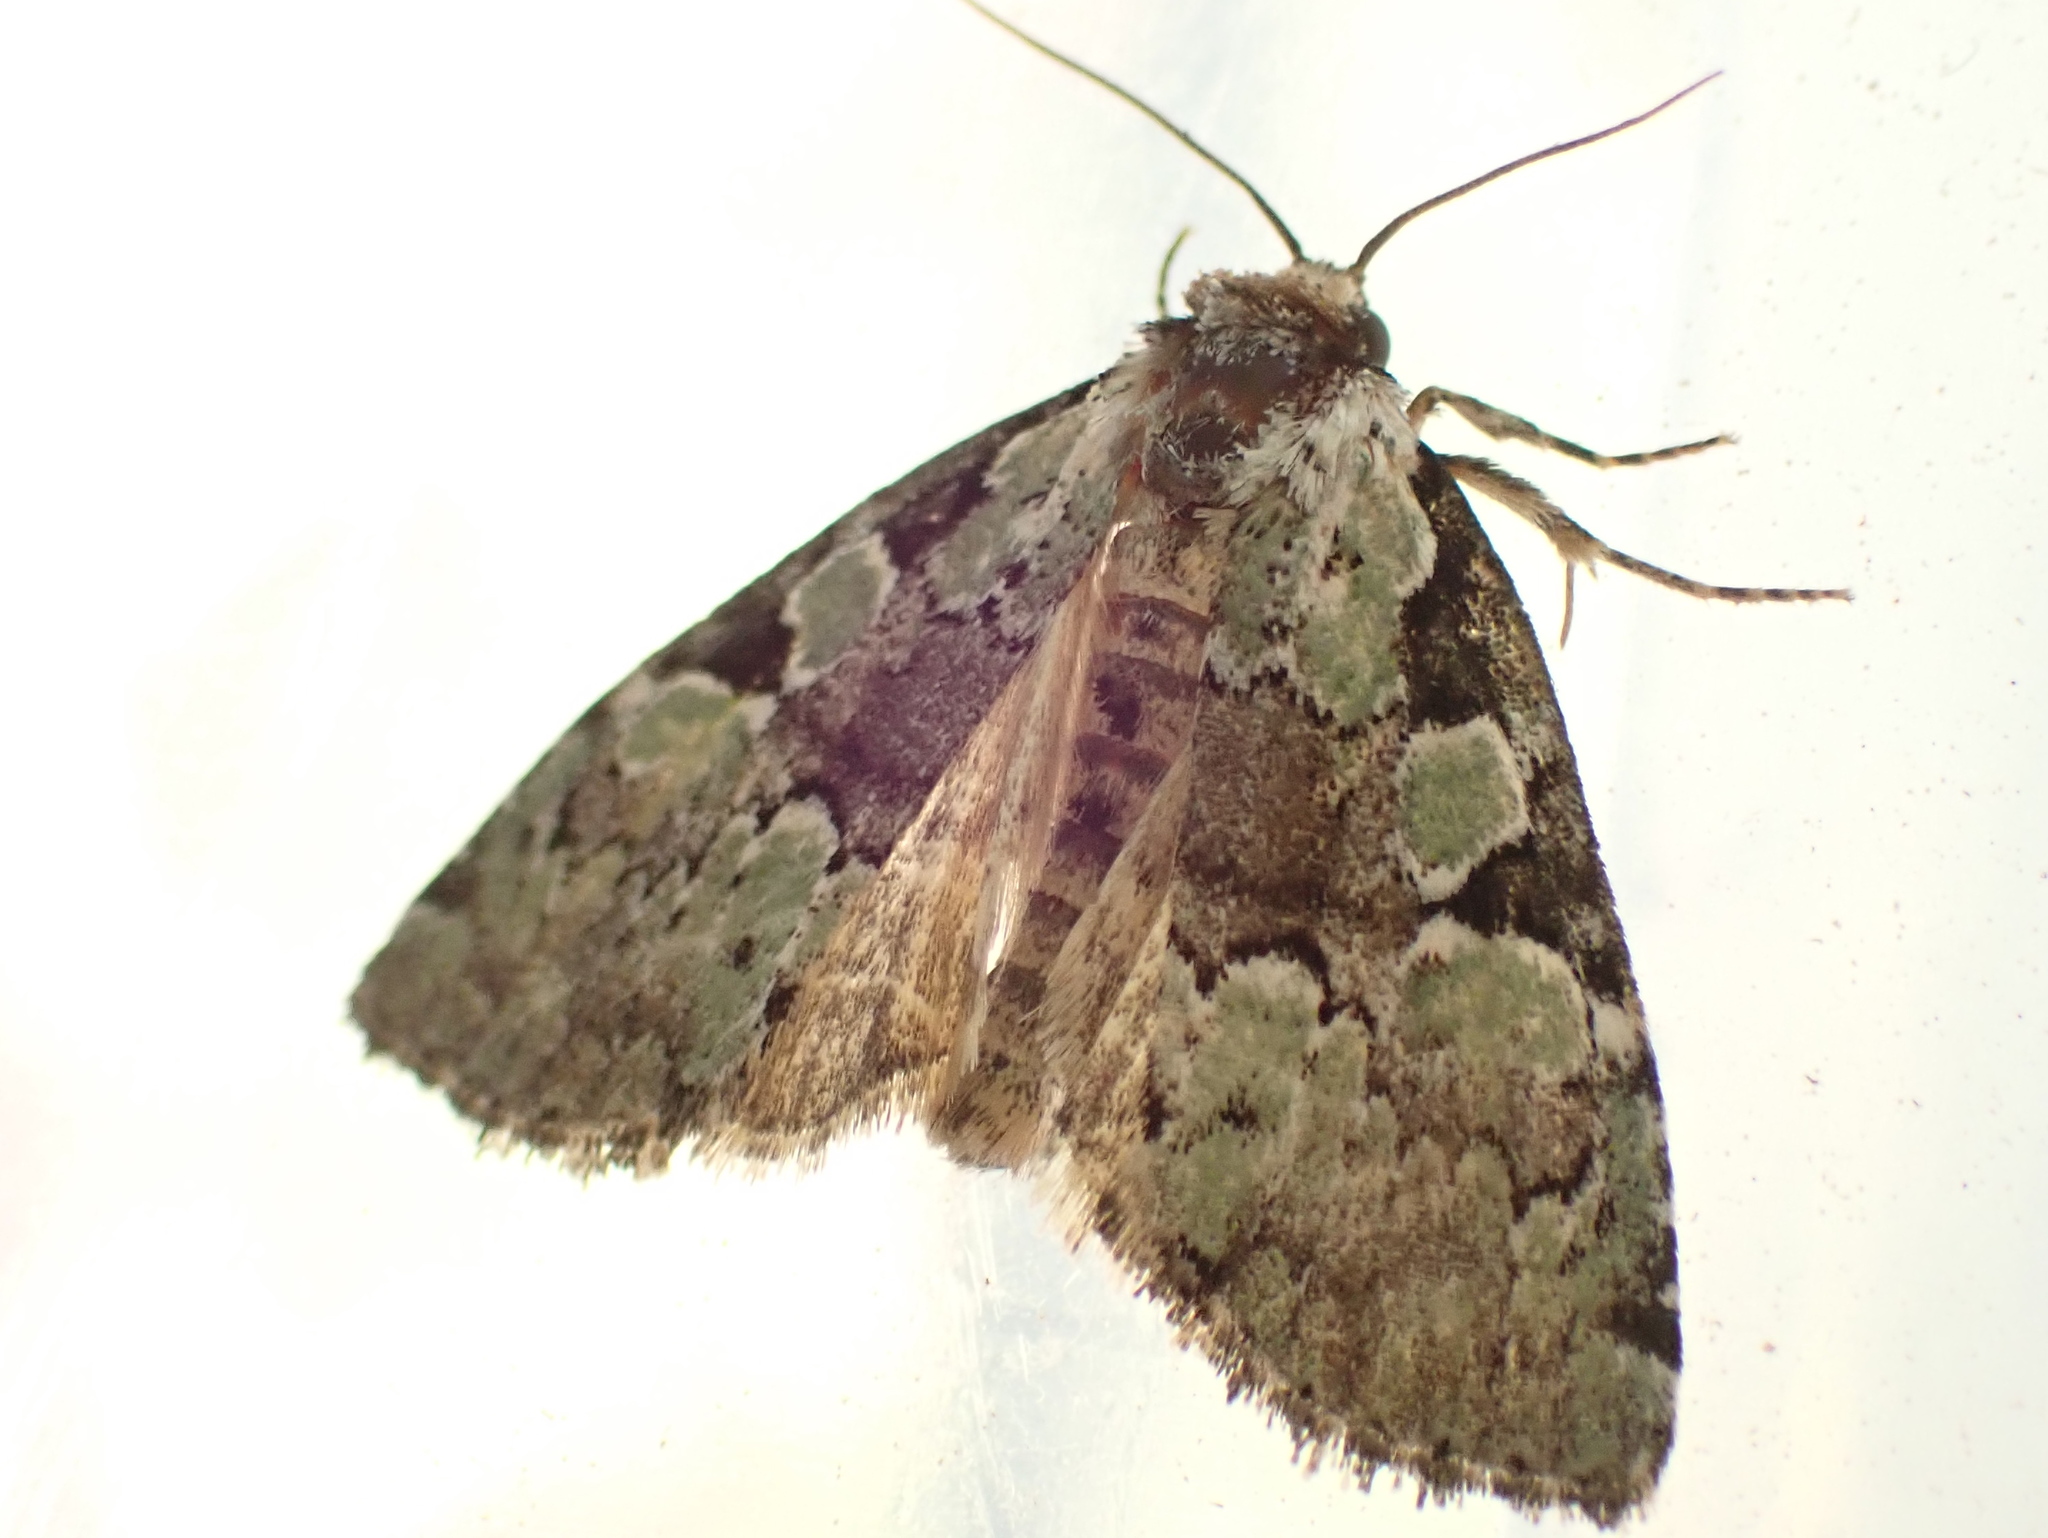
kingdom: Animalia
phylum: Arthropoda
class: Insecta
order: Lepidoptera
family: Noctuidae
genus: Leuconycta
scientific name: Leuconycta lepidula
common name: Marbled-green leuconycta moth
